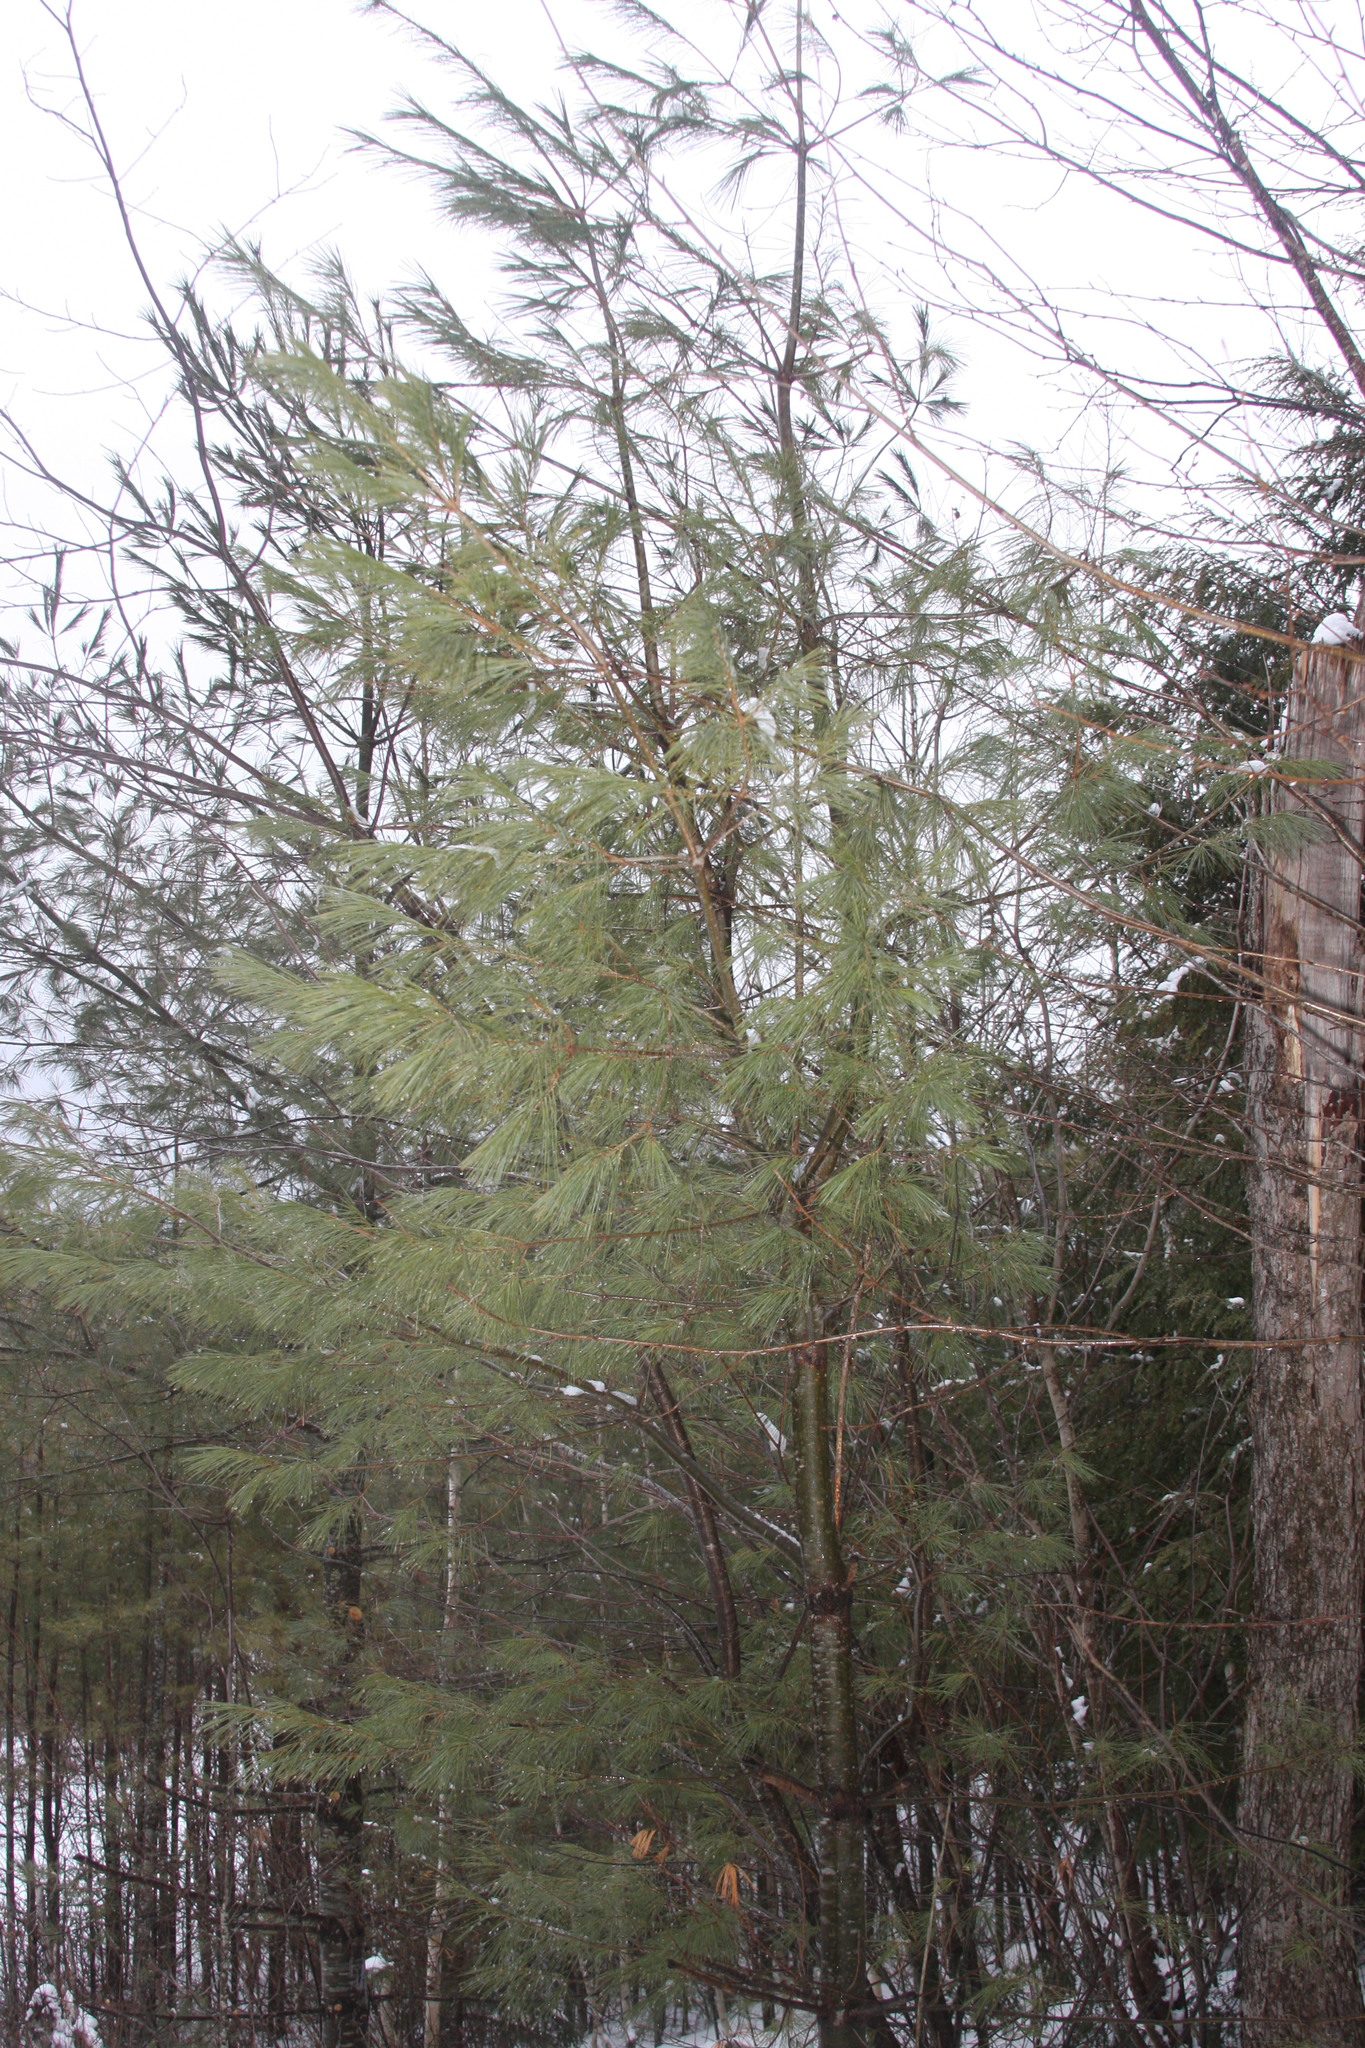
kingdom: Plantae
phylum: Tracheophyta
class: Pinopsida
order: Pinales
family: Pinaceae
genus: Pinus
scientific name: Pinus strobus
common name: Weymouth pine
